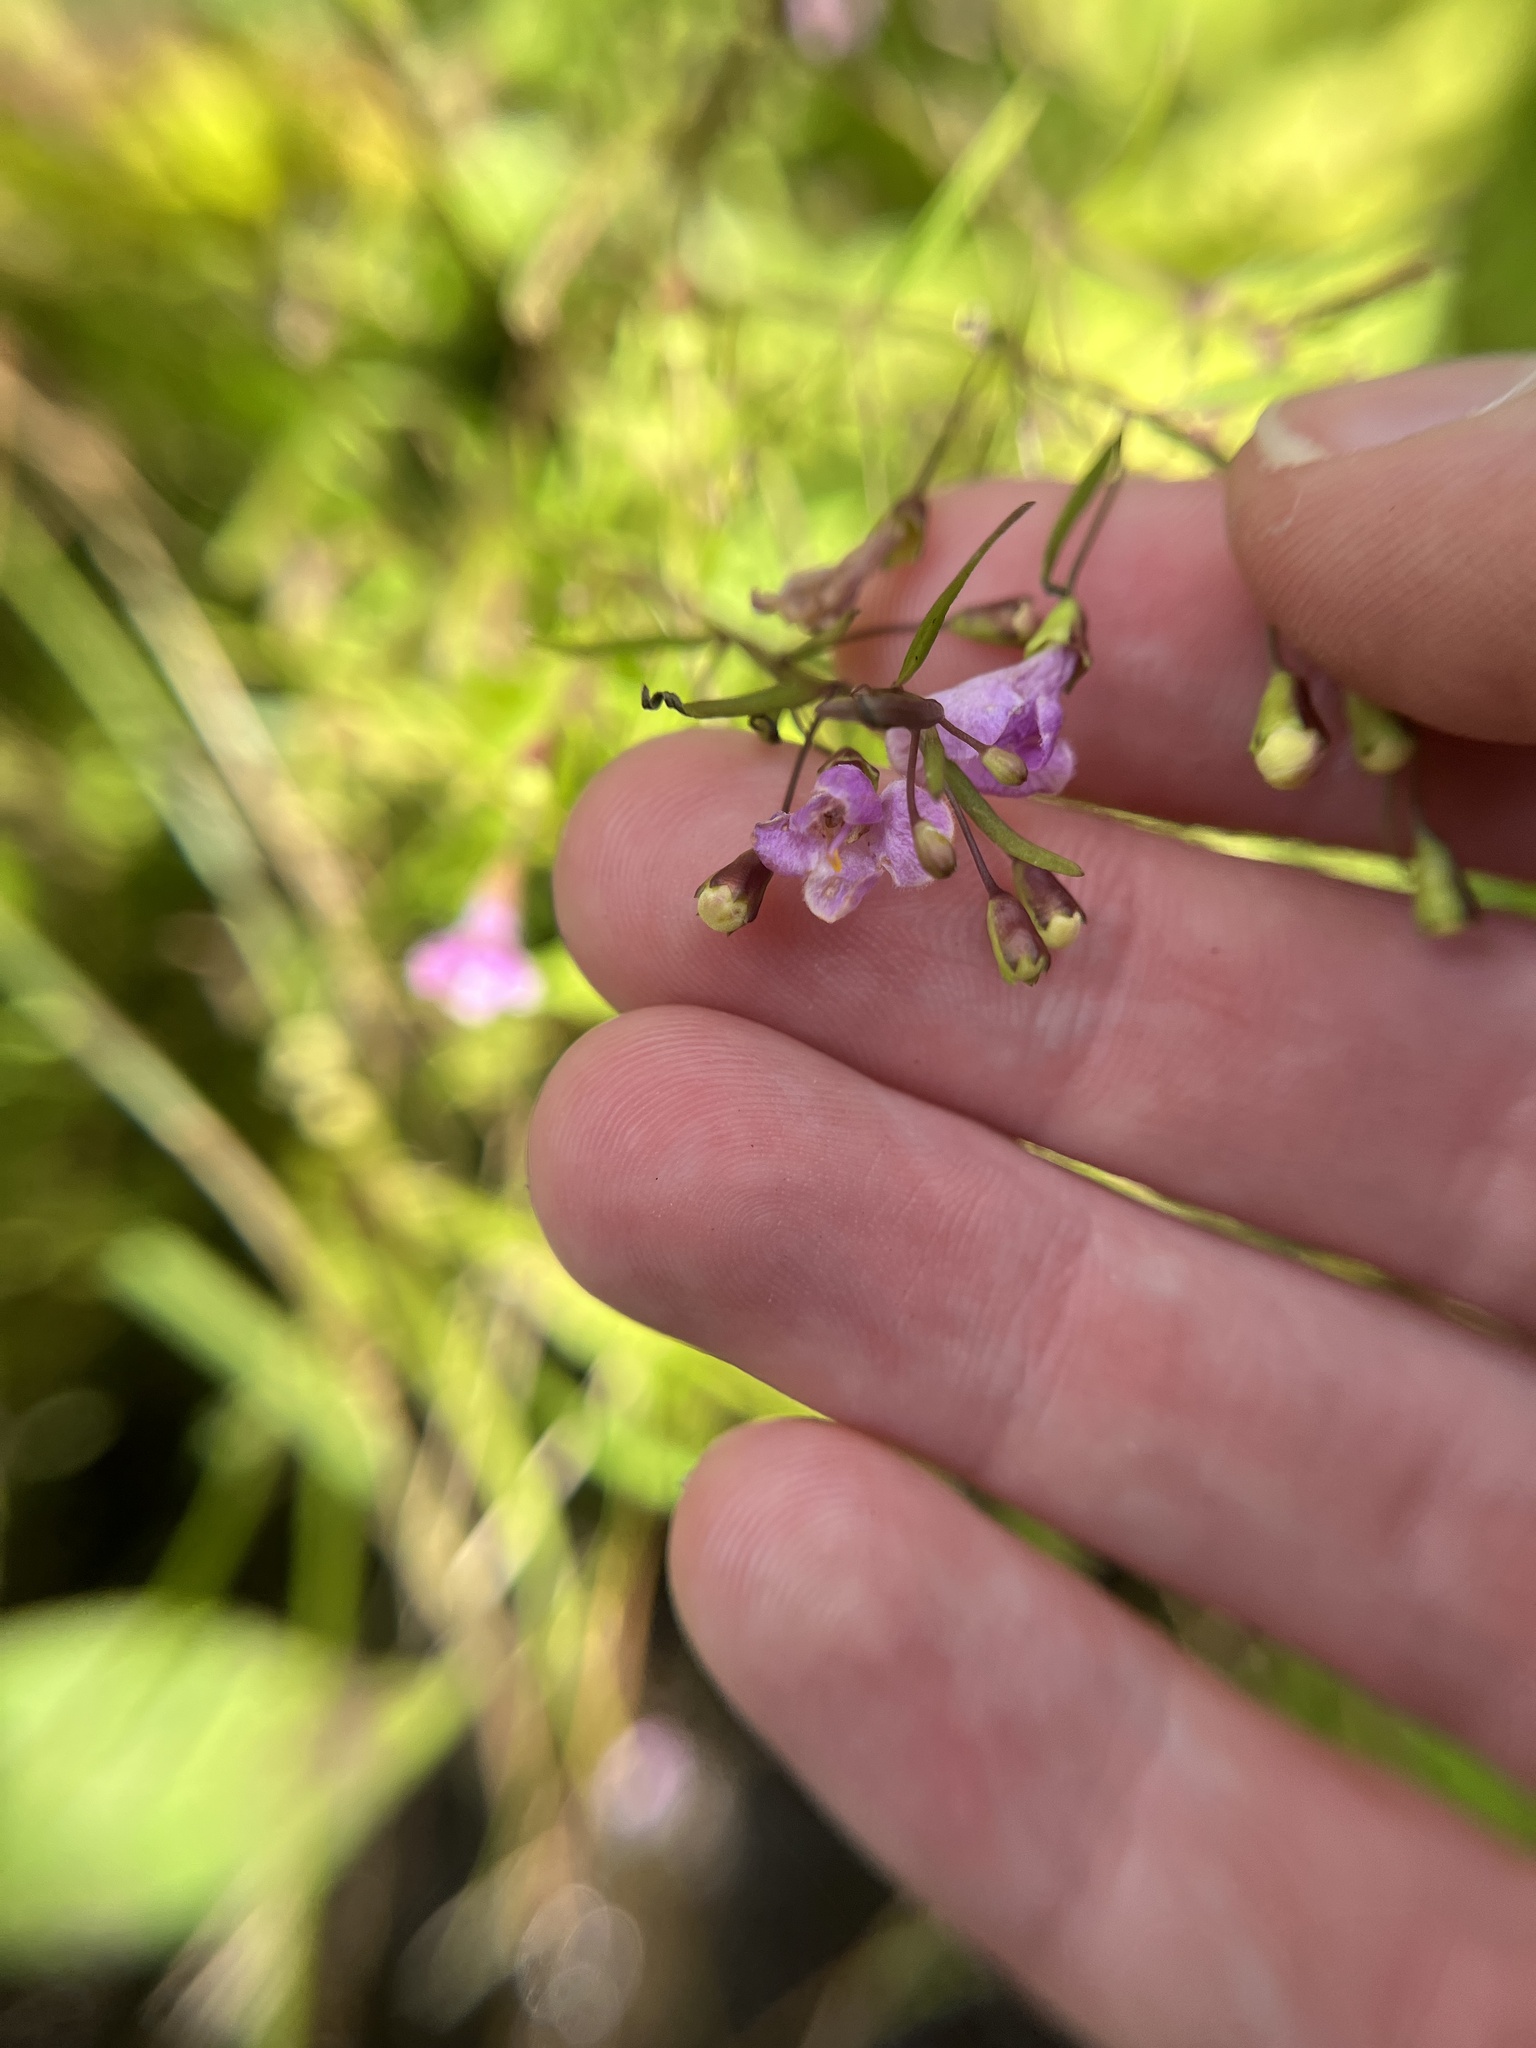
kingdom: Plantae
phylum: Tracheophyta
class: Magnoliopsida
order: Lamiales
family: Orobanchaceae
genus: Agalinis
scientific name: Agalinis tenuifolia
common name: Slender agalinis
